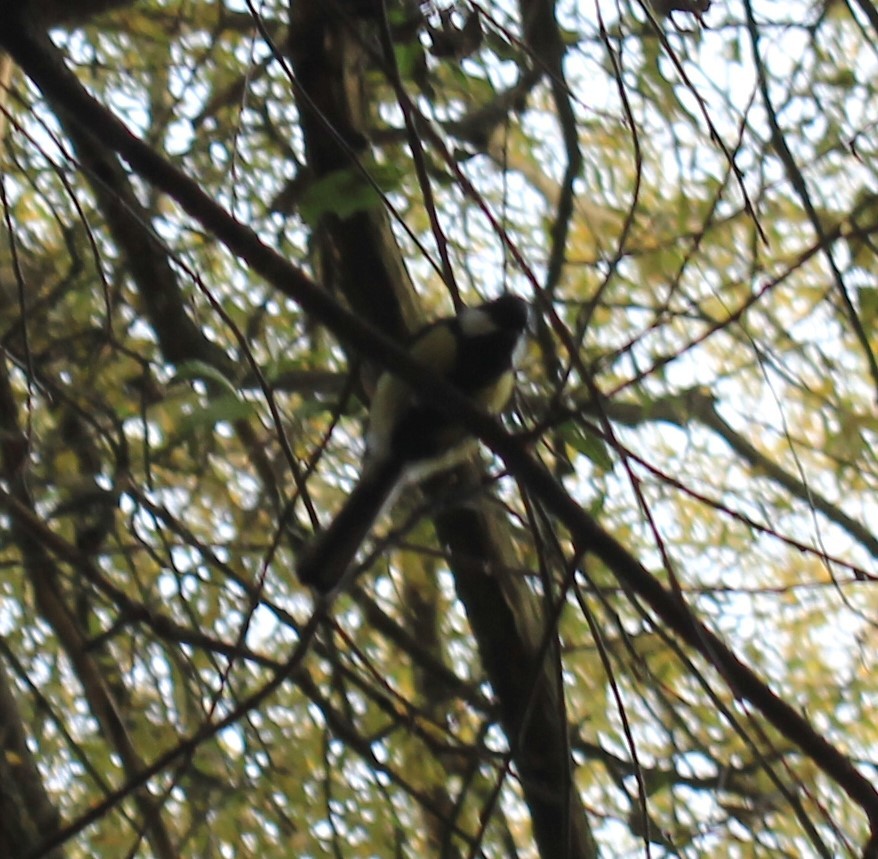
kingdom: Animalia
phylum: Chordata
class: Aves
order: Passeriformes
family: Paridae
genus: Parus
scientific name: Parus major
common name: Great tit
